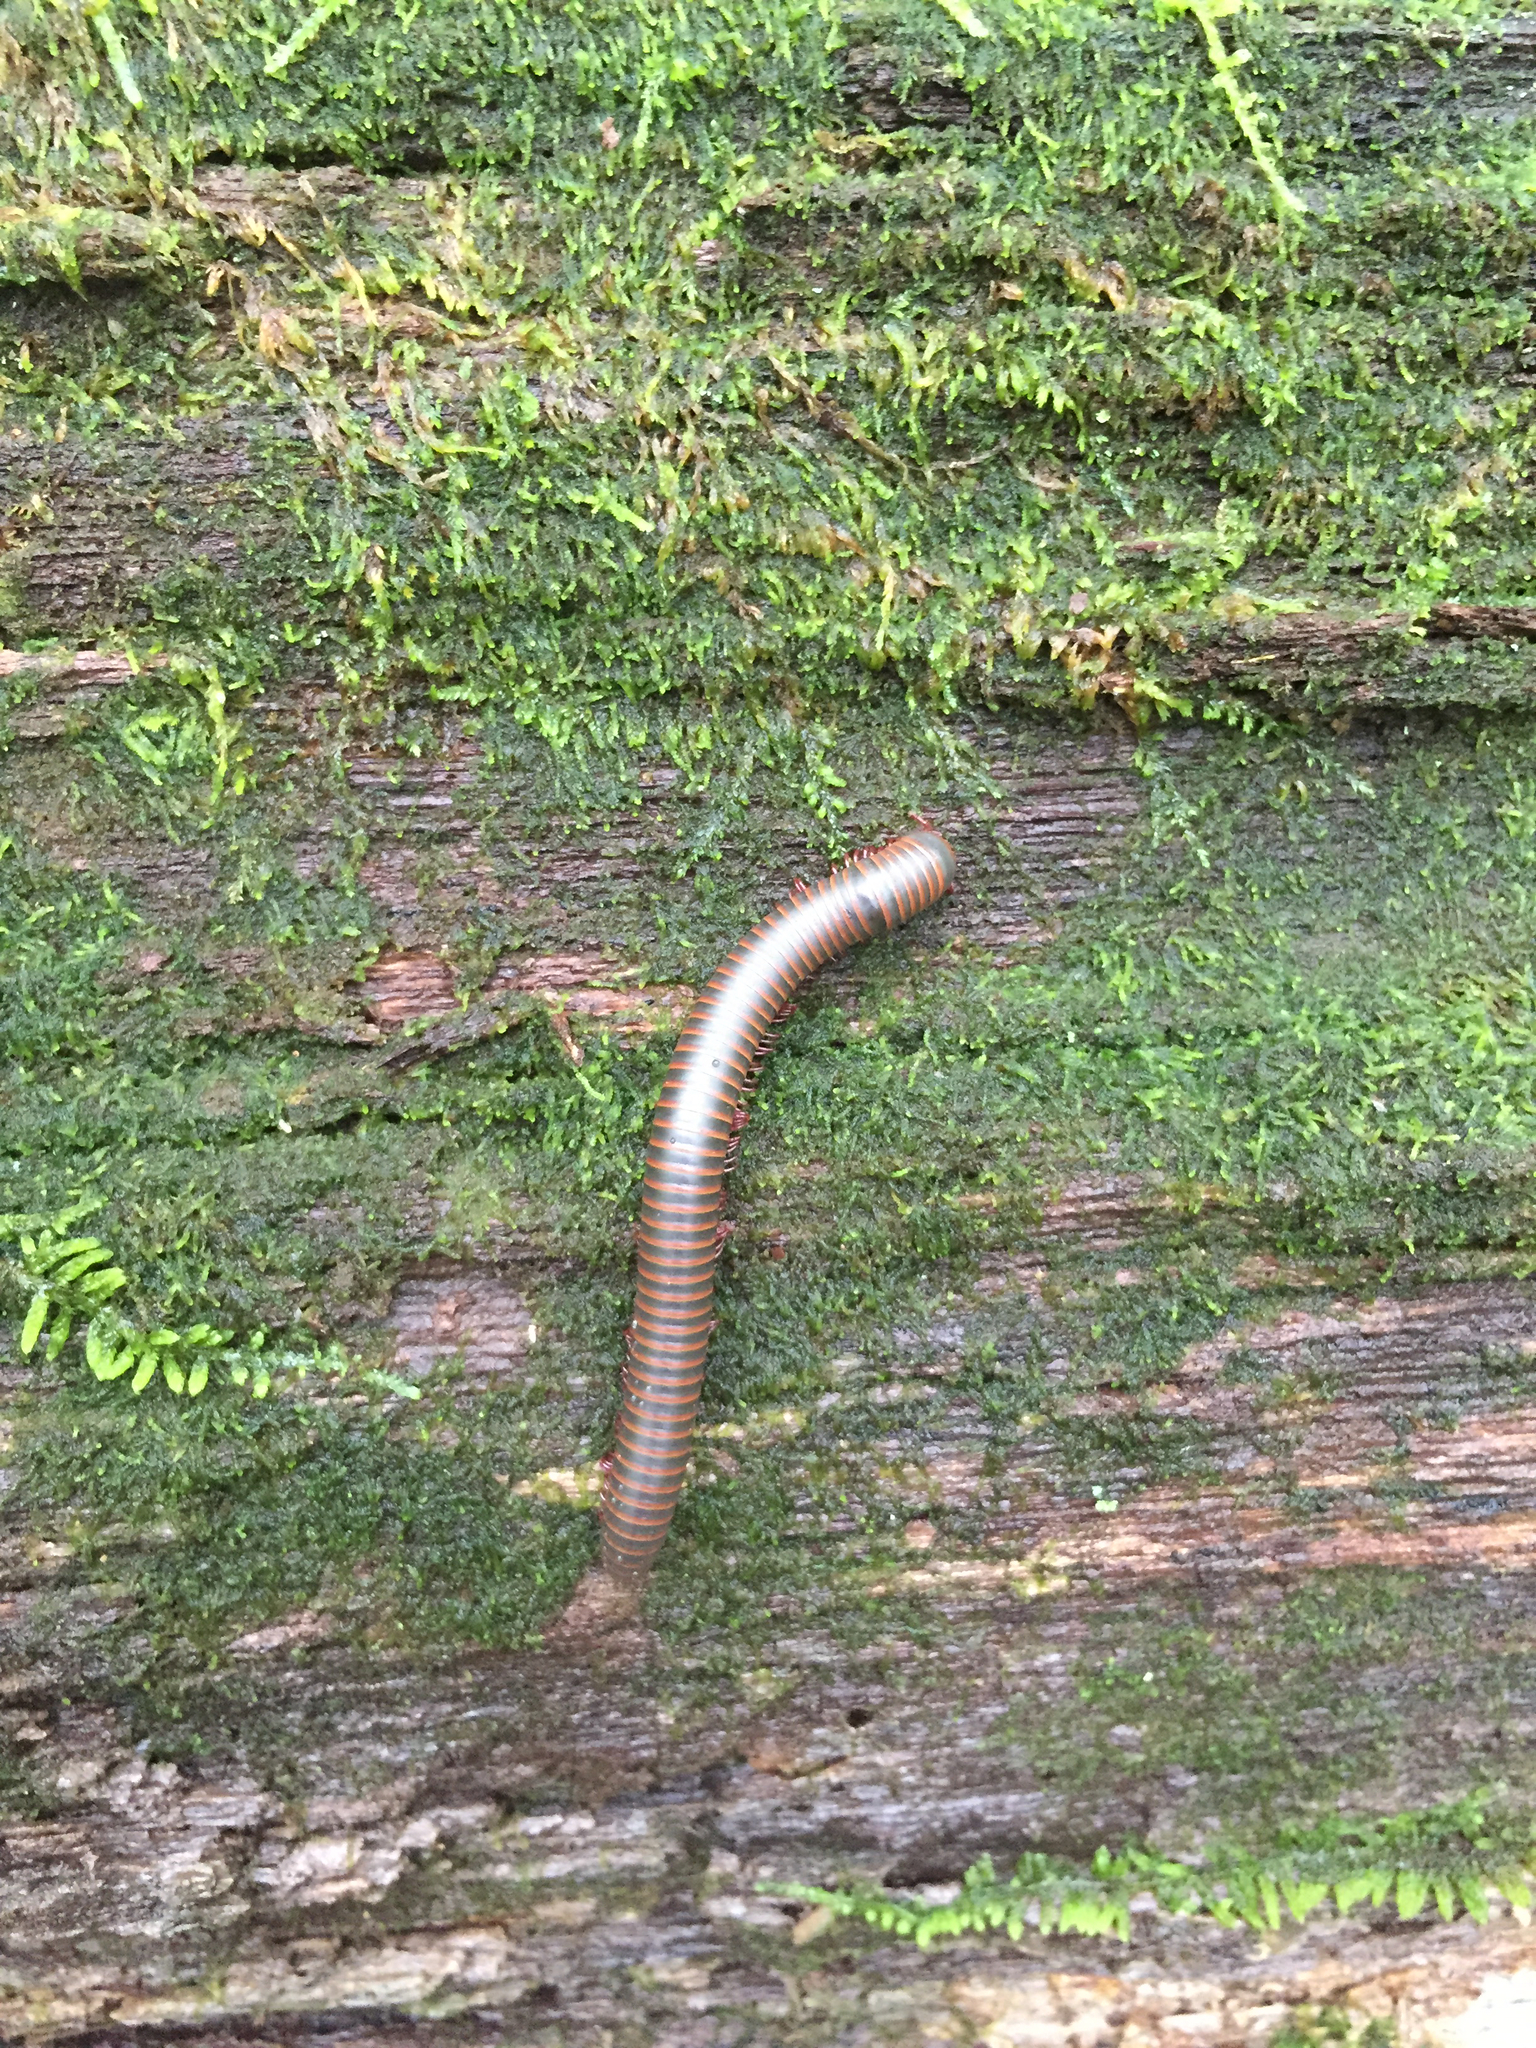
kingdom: Animalia
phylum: Arthropoda
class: Diplopoda
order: Spirobolida
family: Spirobolidae
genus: Narceus
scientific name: Narceus
